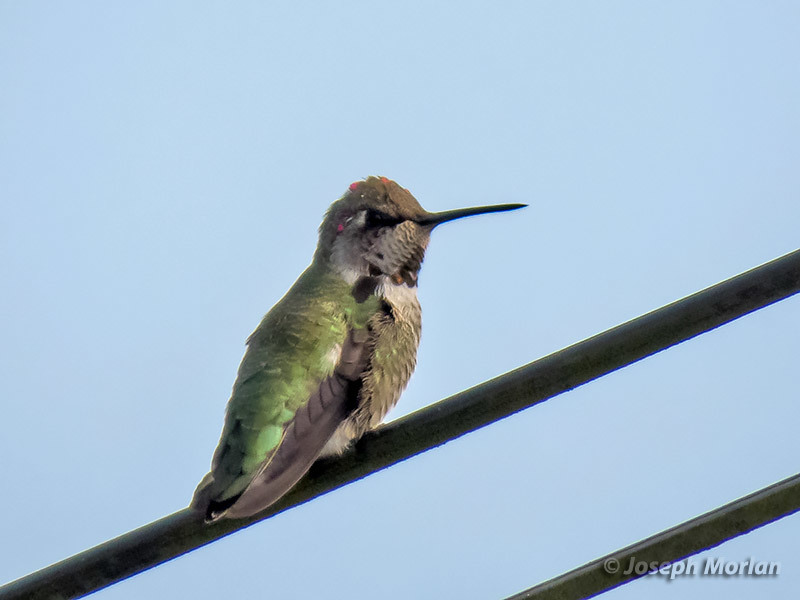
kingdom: Animalia
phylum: Chordata
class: Aves
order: Apodiformes
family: Trochilidae
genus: Calypte
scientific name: Calypte anna
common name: Anna's hummingbird
